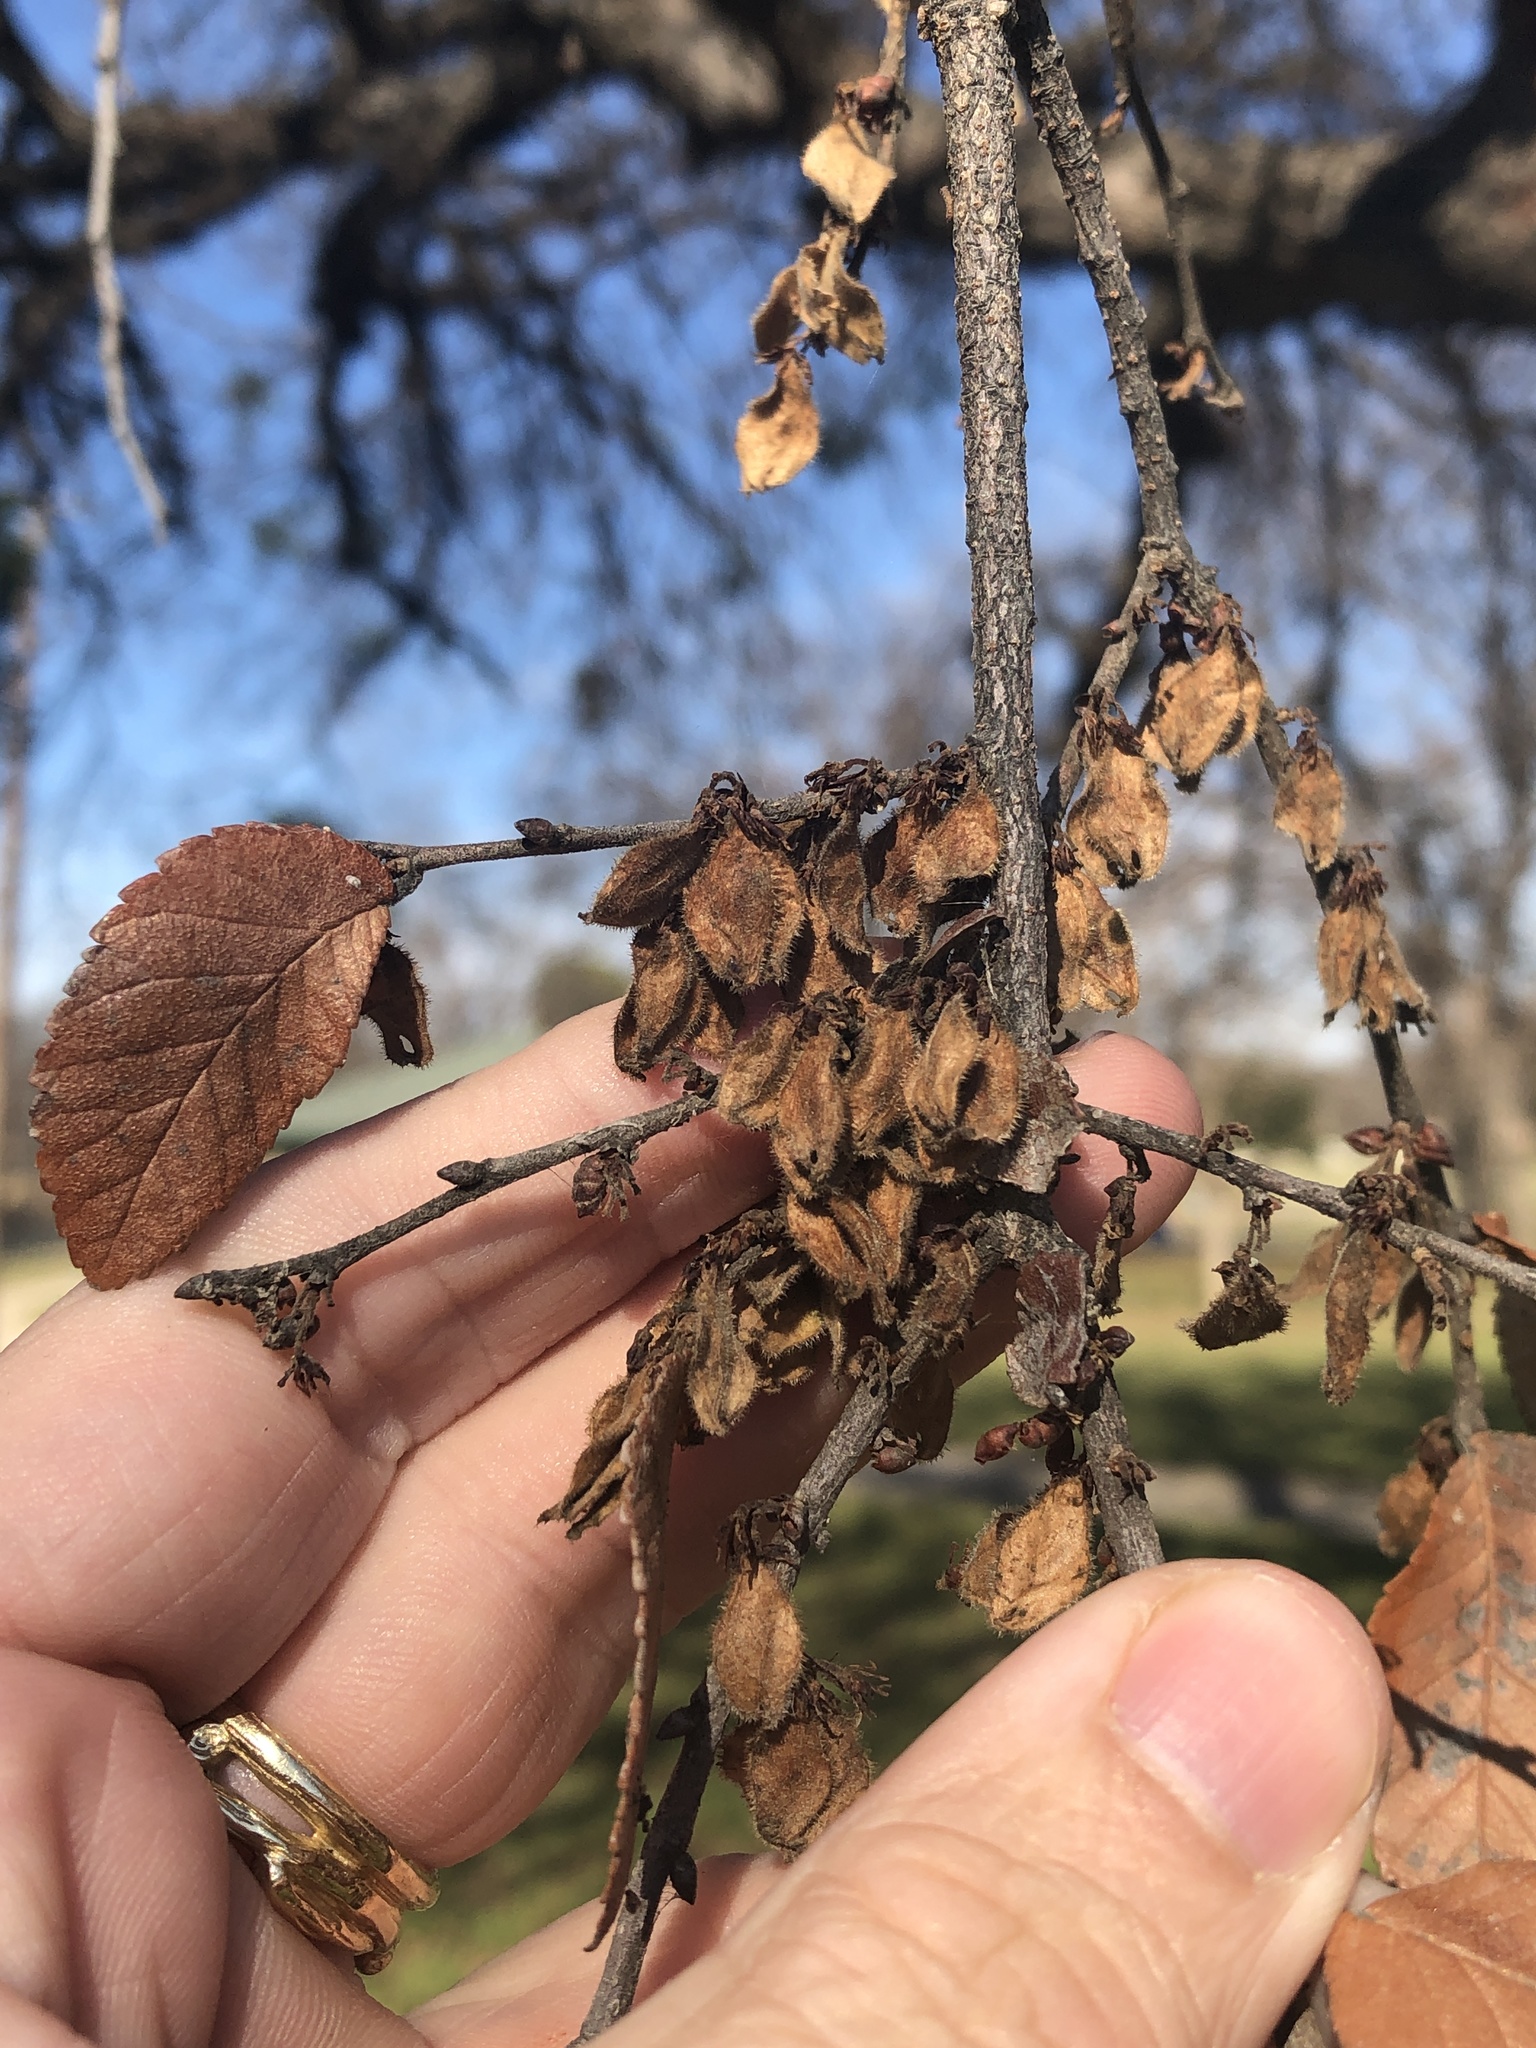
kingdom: Plantae
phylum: Tracheophyta
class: Magnoliopsida
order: Rosales
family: Ulmaceae
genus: Ulmus
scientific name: Ulmus crassifolia
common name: Basket elm
